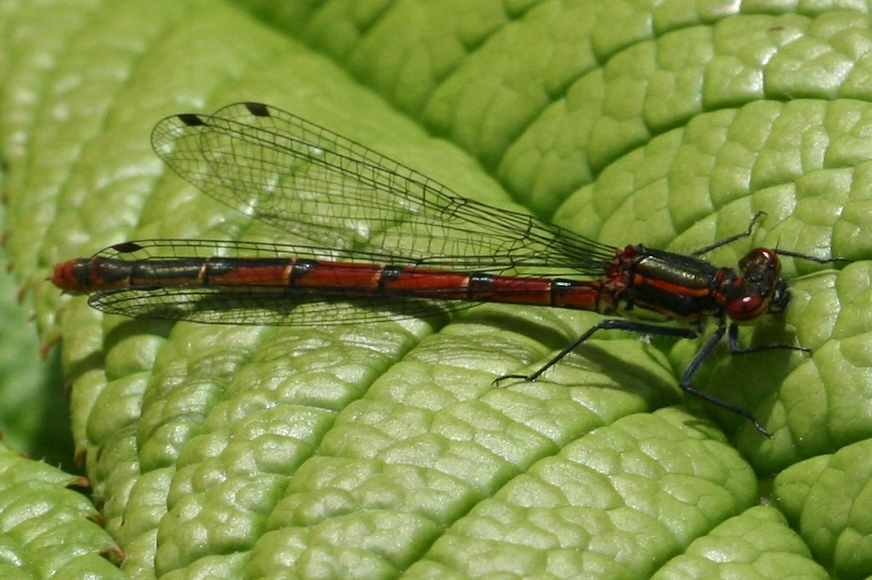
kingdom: Animalia
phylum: Arthropoda
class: Insecta
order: Odonata
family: Coenagrionidae
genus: Pyrrhosoma
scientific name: Pyrrhosoma nymphula
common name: Large red damsel
